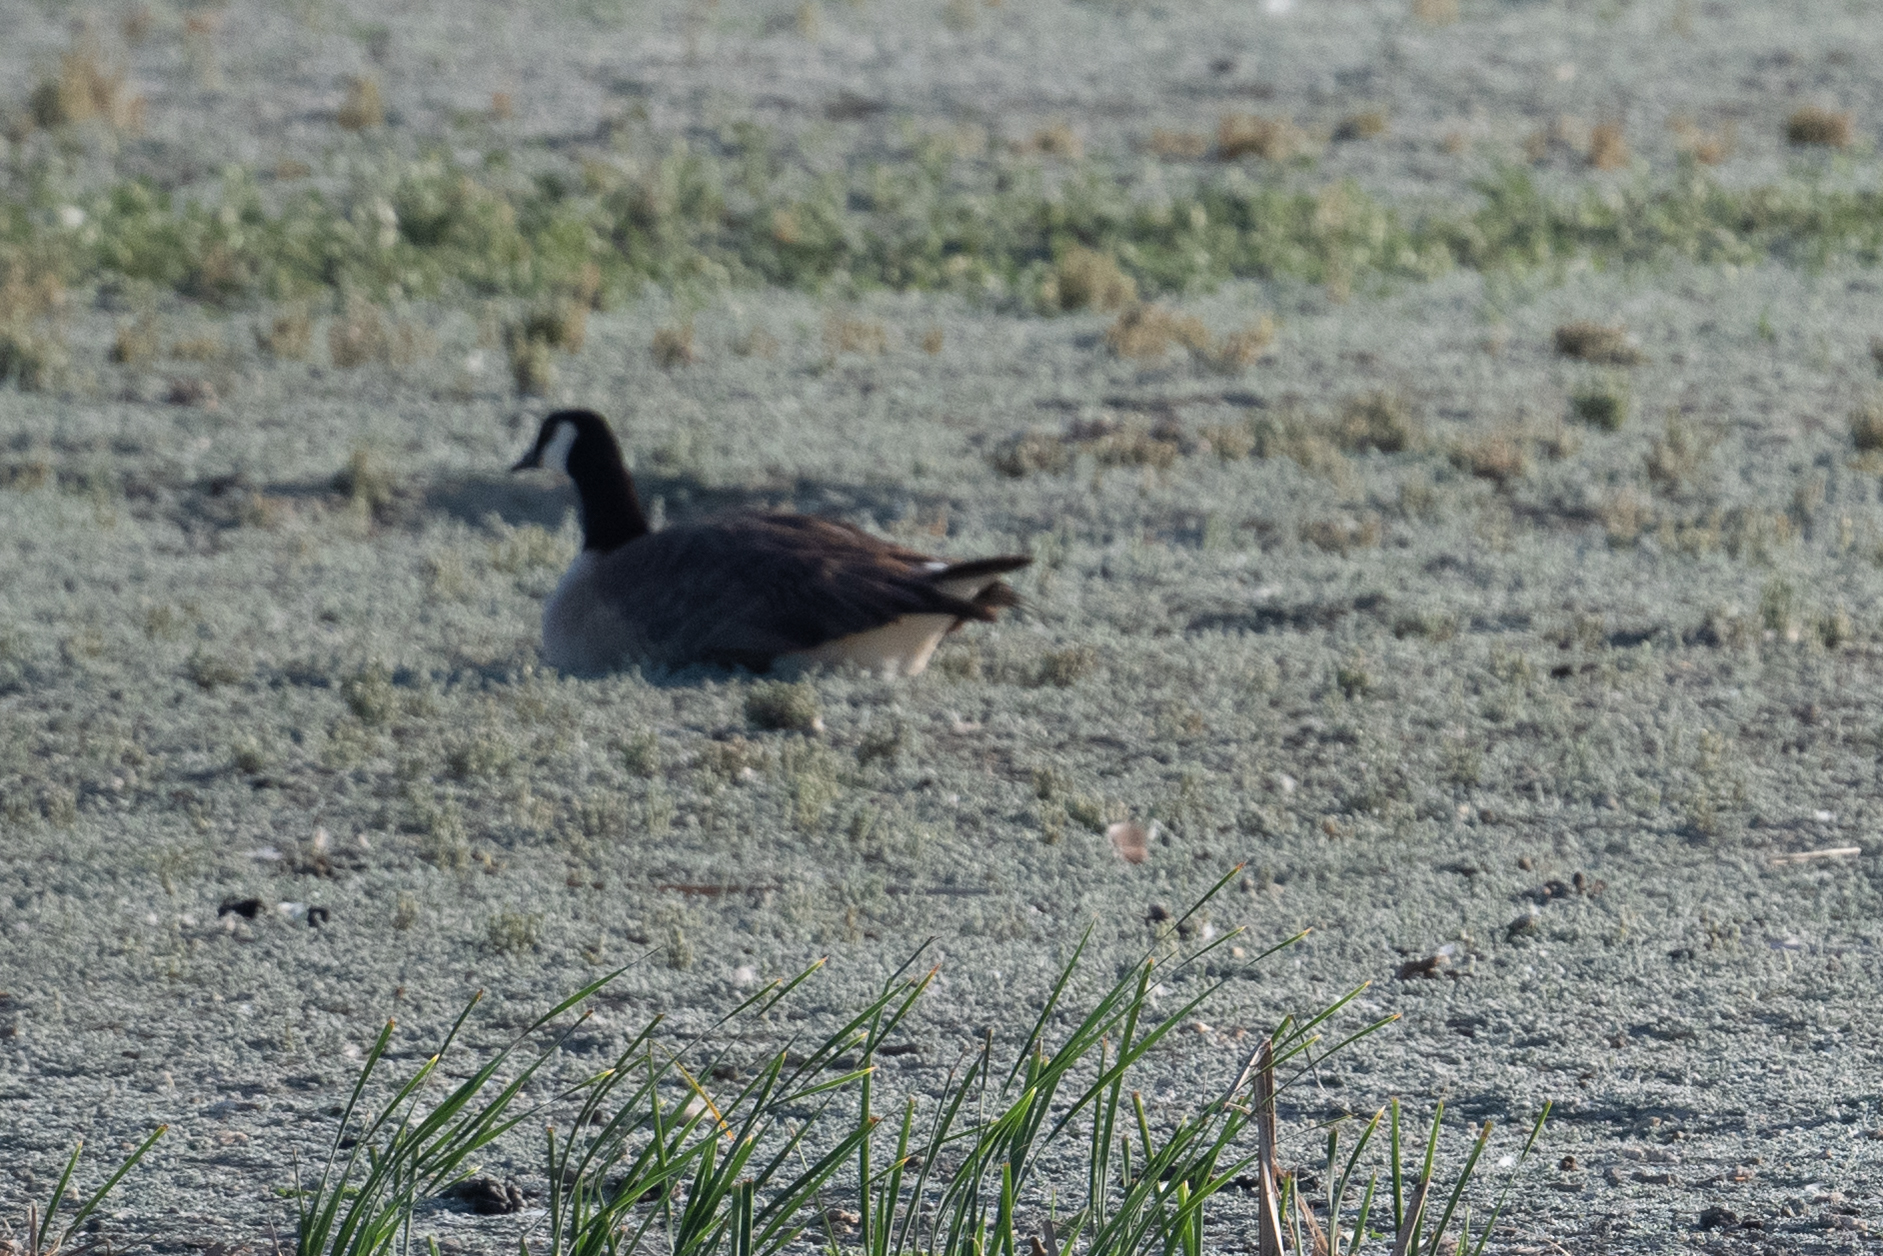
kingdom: Animalia
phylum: Chordata
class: Aves
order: Anseriformes
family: Anatidae
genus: Branta
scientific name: Branta canadensis
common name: Canada goose
